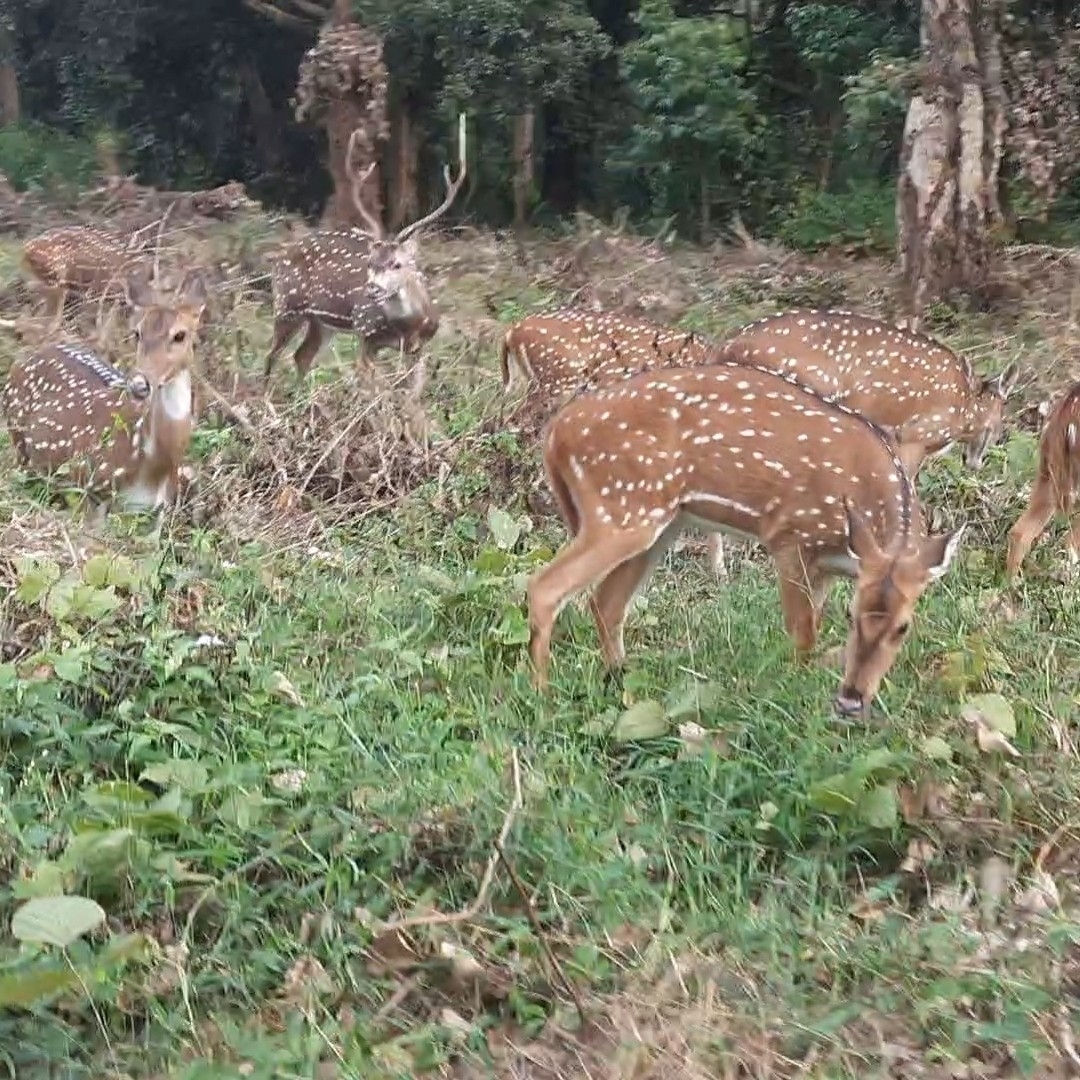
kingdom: Animalia
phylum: Chordata
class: Mammalia
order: Artiodactyla
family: Cervidae
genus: Axis
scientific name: Axis axis
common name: Chital
